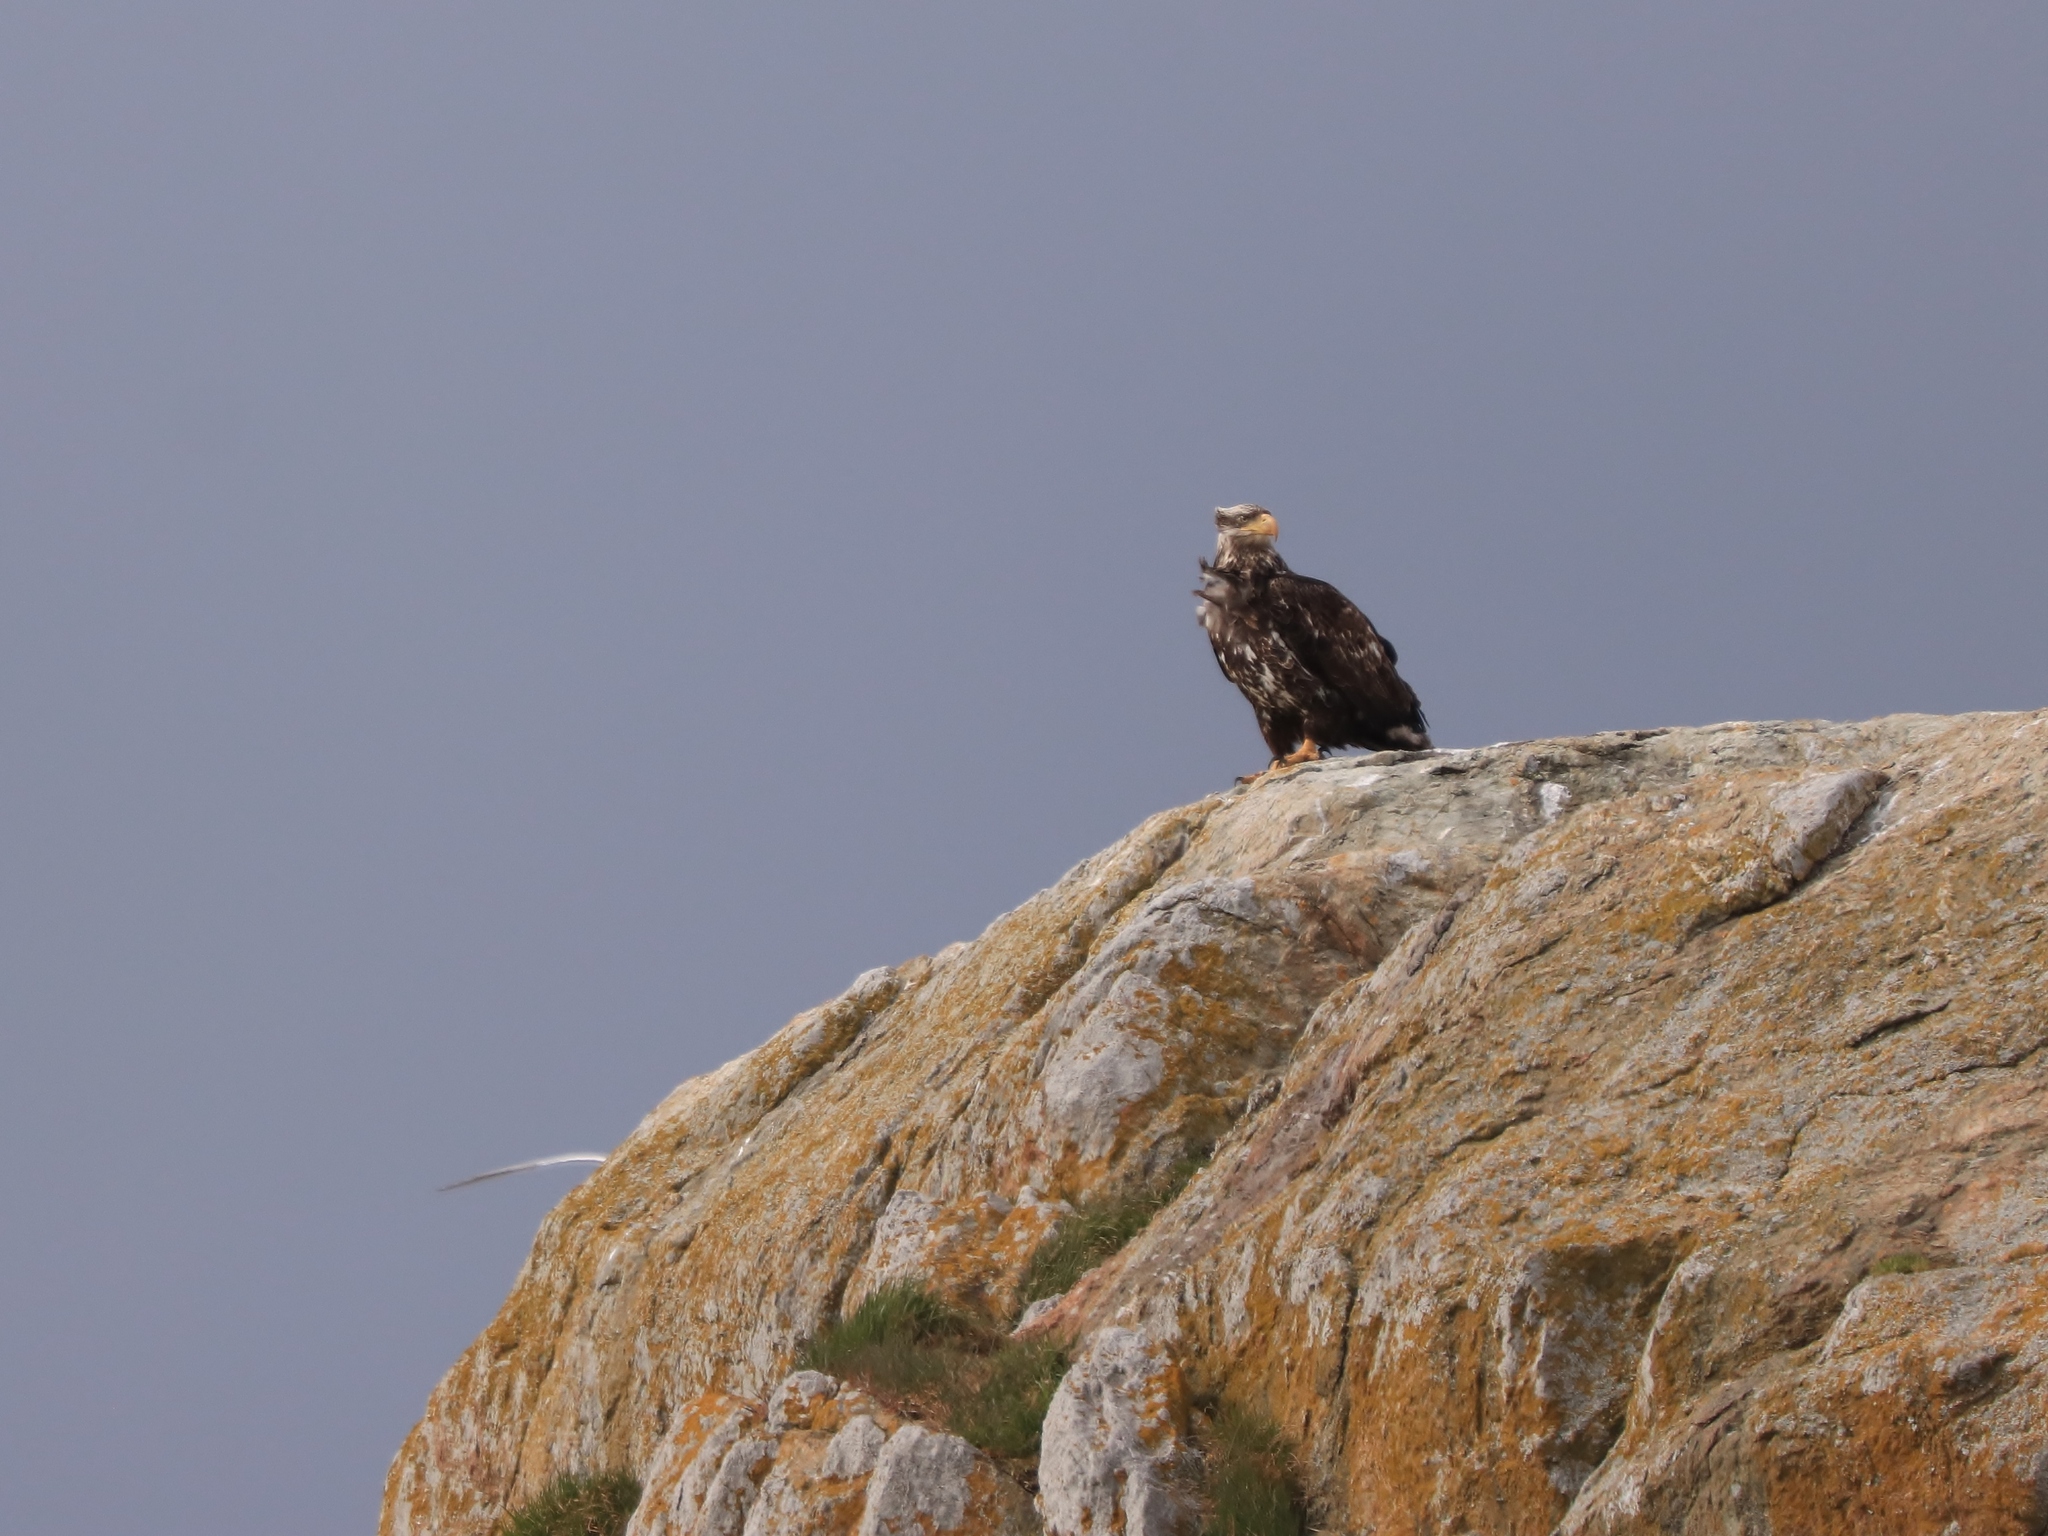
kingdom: Animalia
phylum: Chordata
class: Aves
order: Accipitriformes
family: Accipitridae
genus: Haliaeetus
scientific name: Haliaeetus leucocephalus
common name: Bald eagle
